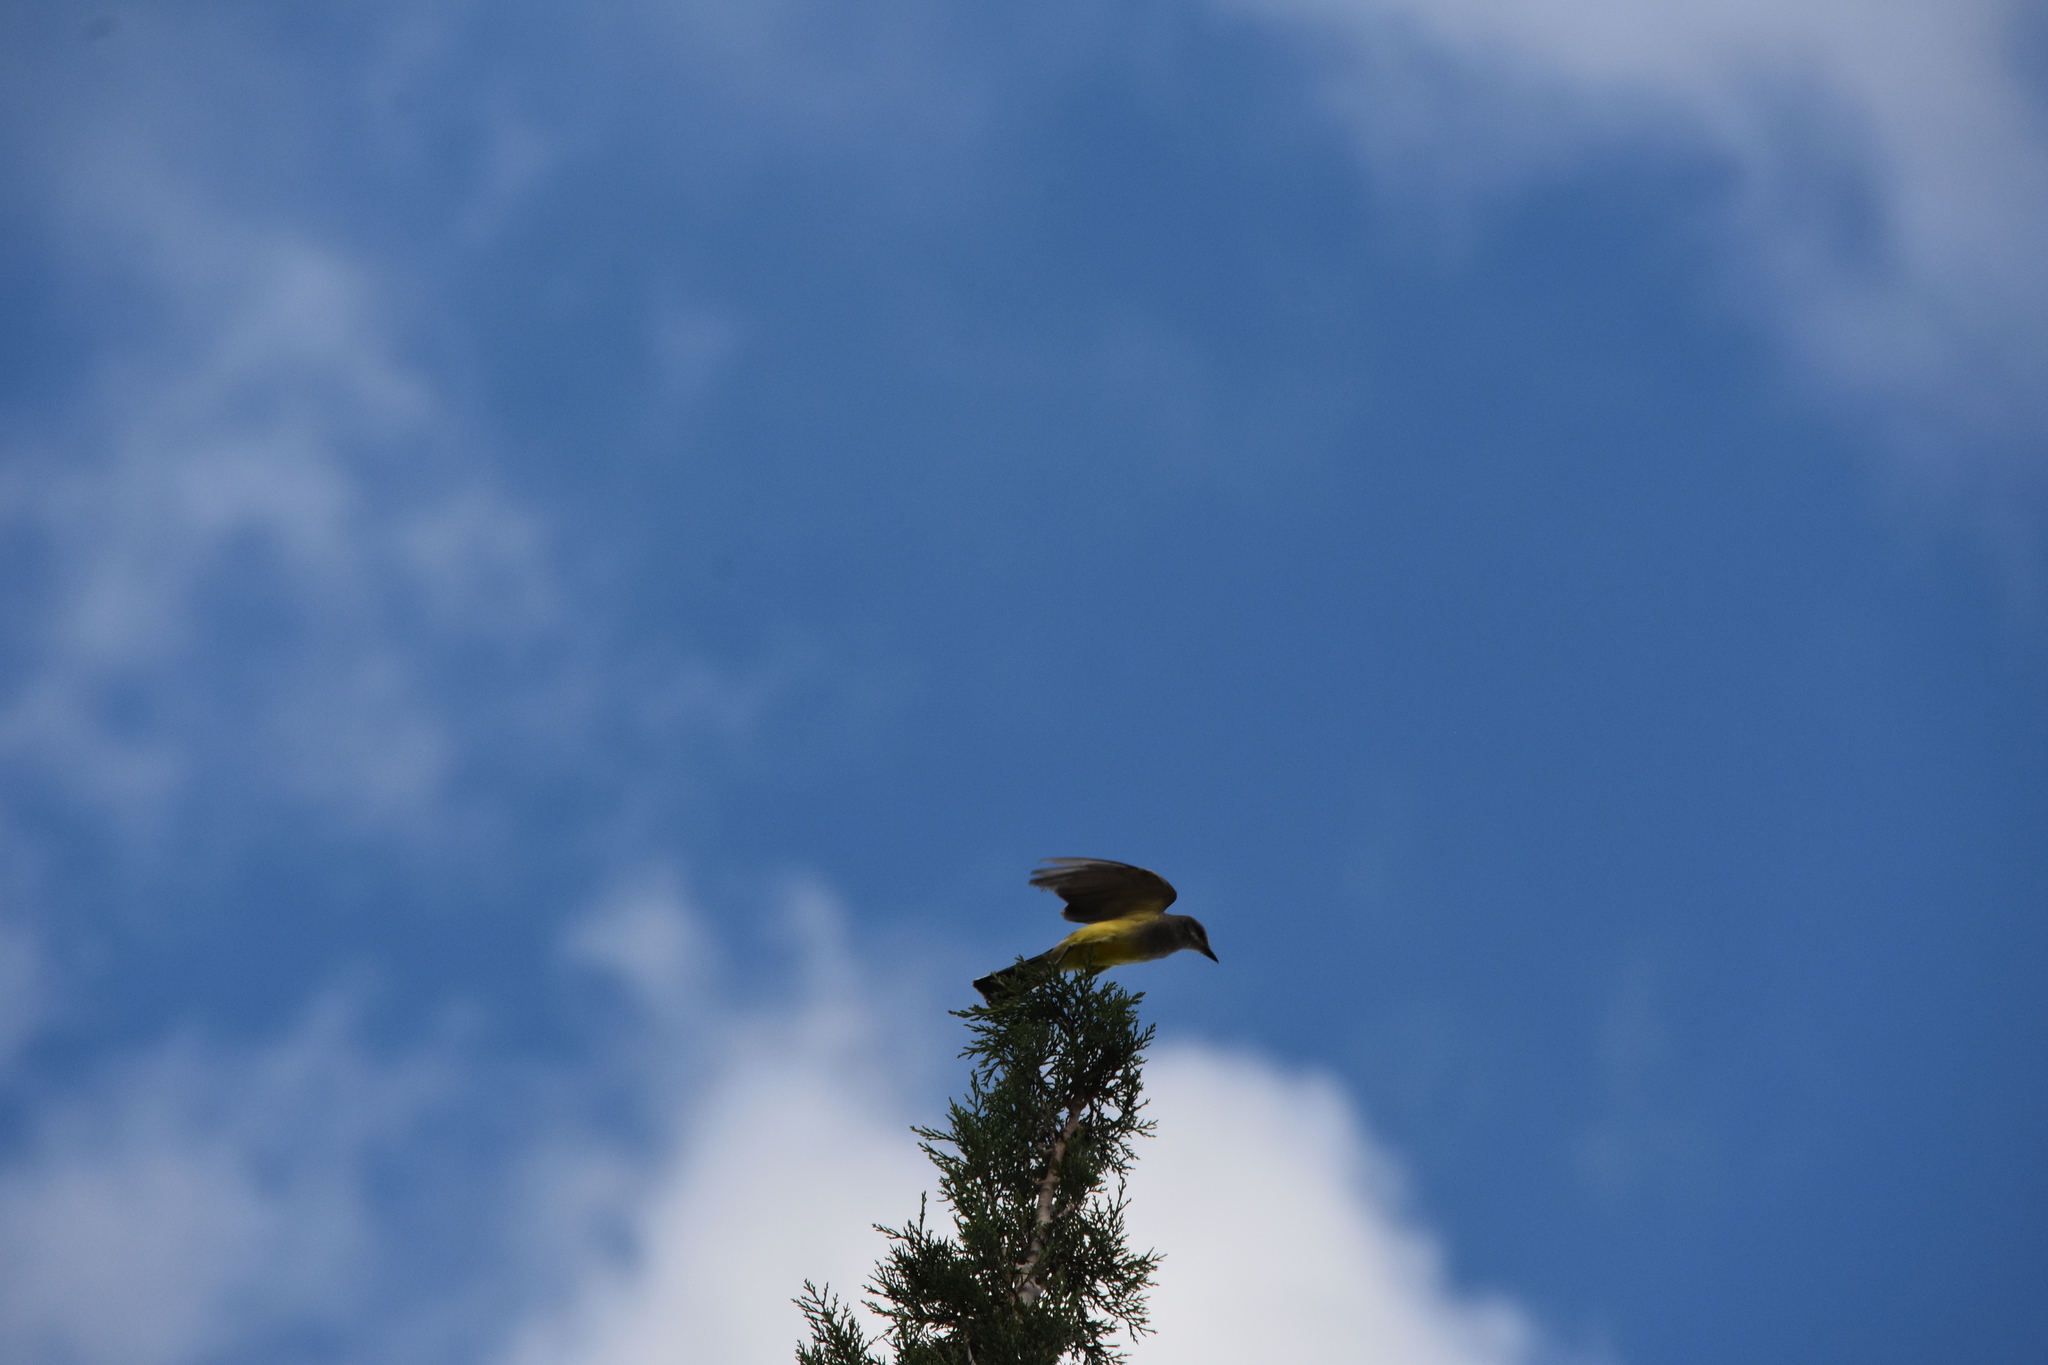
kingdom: Animalia
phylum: Chordata
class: Aves
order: Passeriformes
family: Tyrannidae
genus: Tyrannus
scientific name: Tyrannus verticalis
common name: Western kingbird
